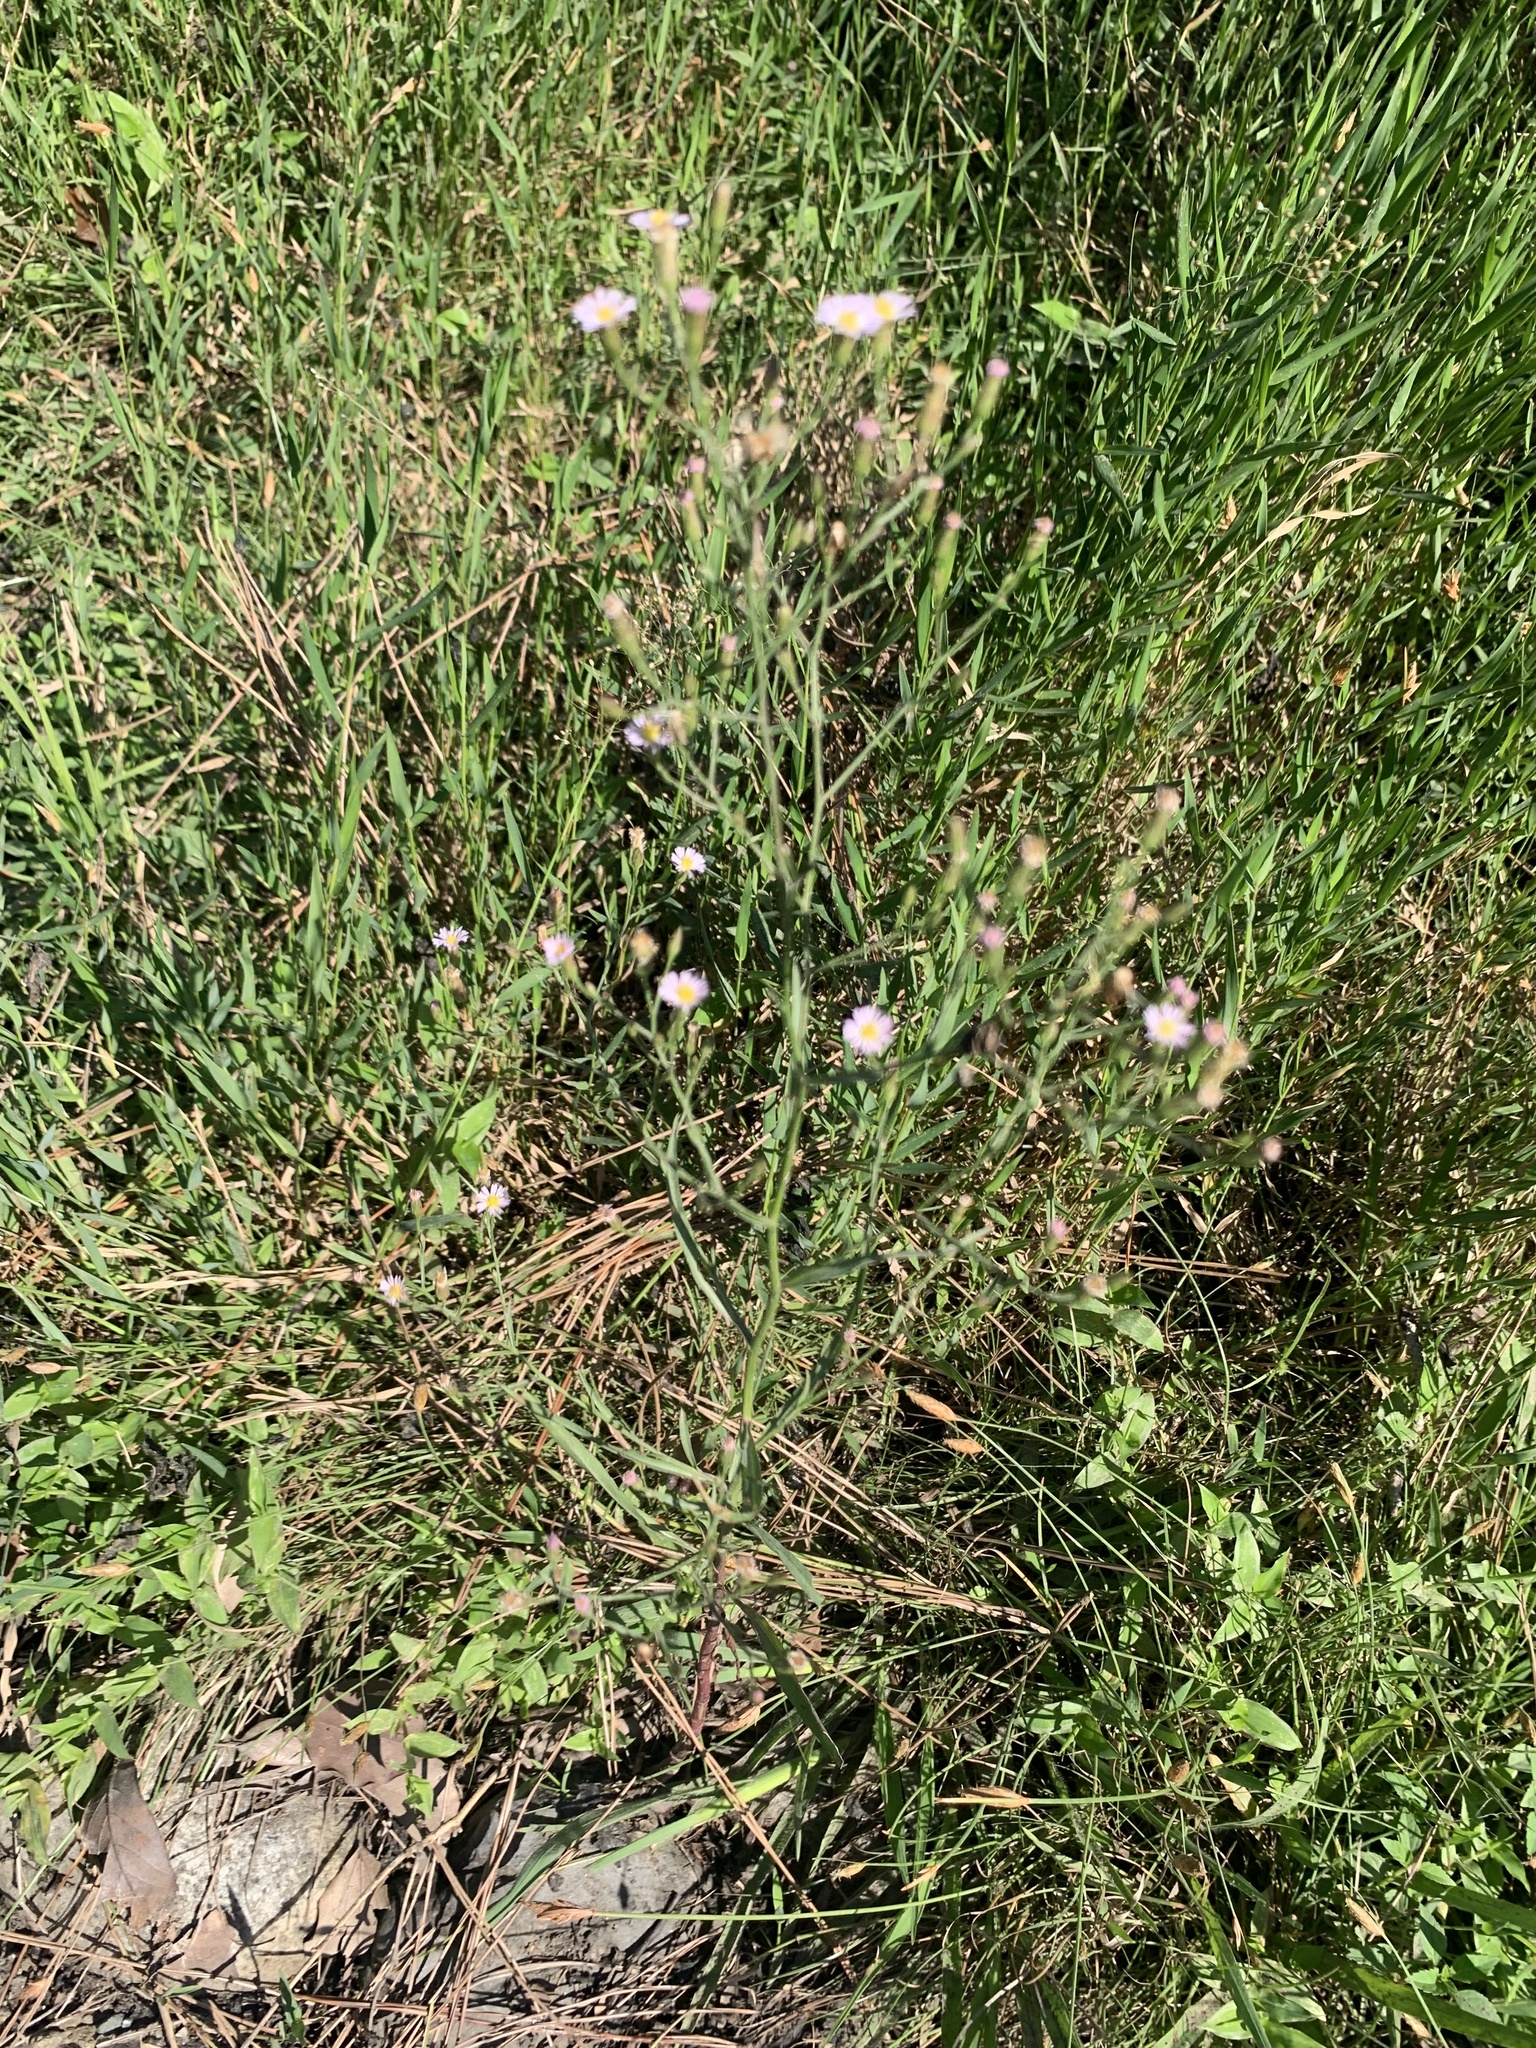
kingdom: Plantae
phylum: Tracheophyta
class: Magnoliopsida
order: Asterales
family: Asteraceae
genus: Symphyotrichum
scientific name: Symphyotrichum subulatum
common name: Annual saltmarsh aster
